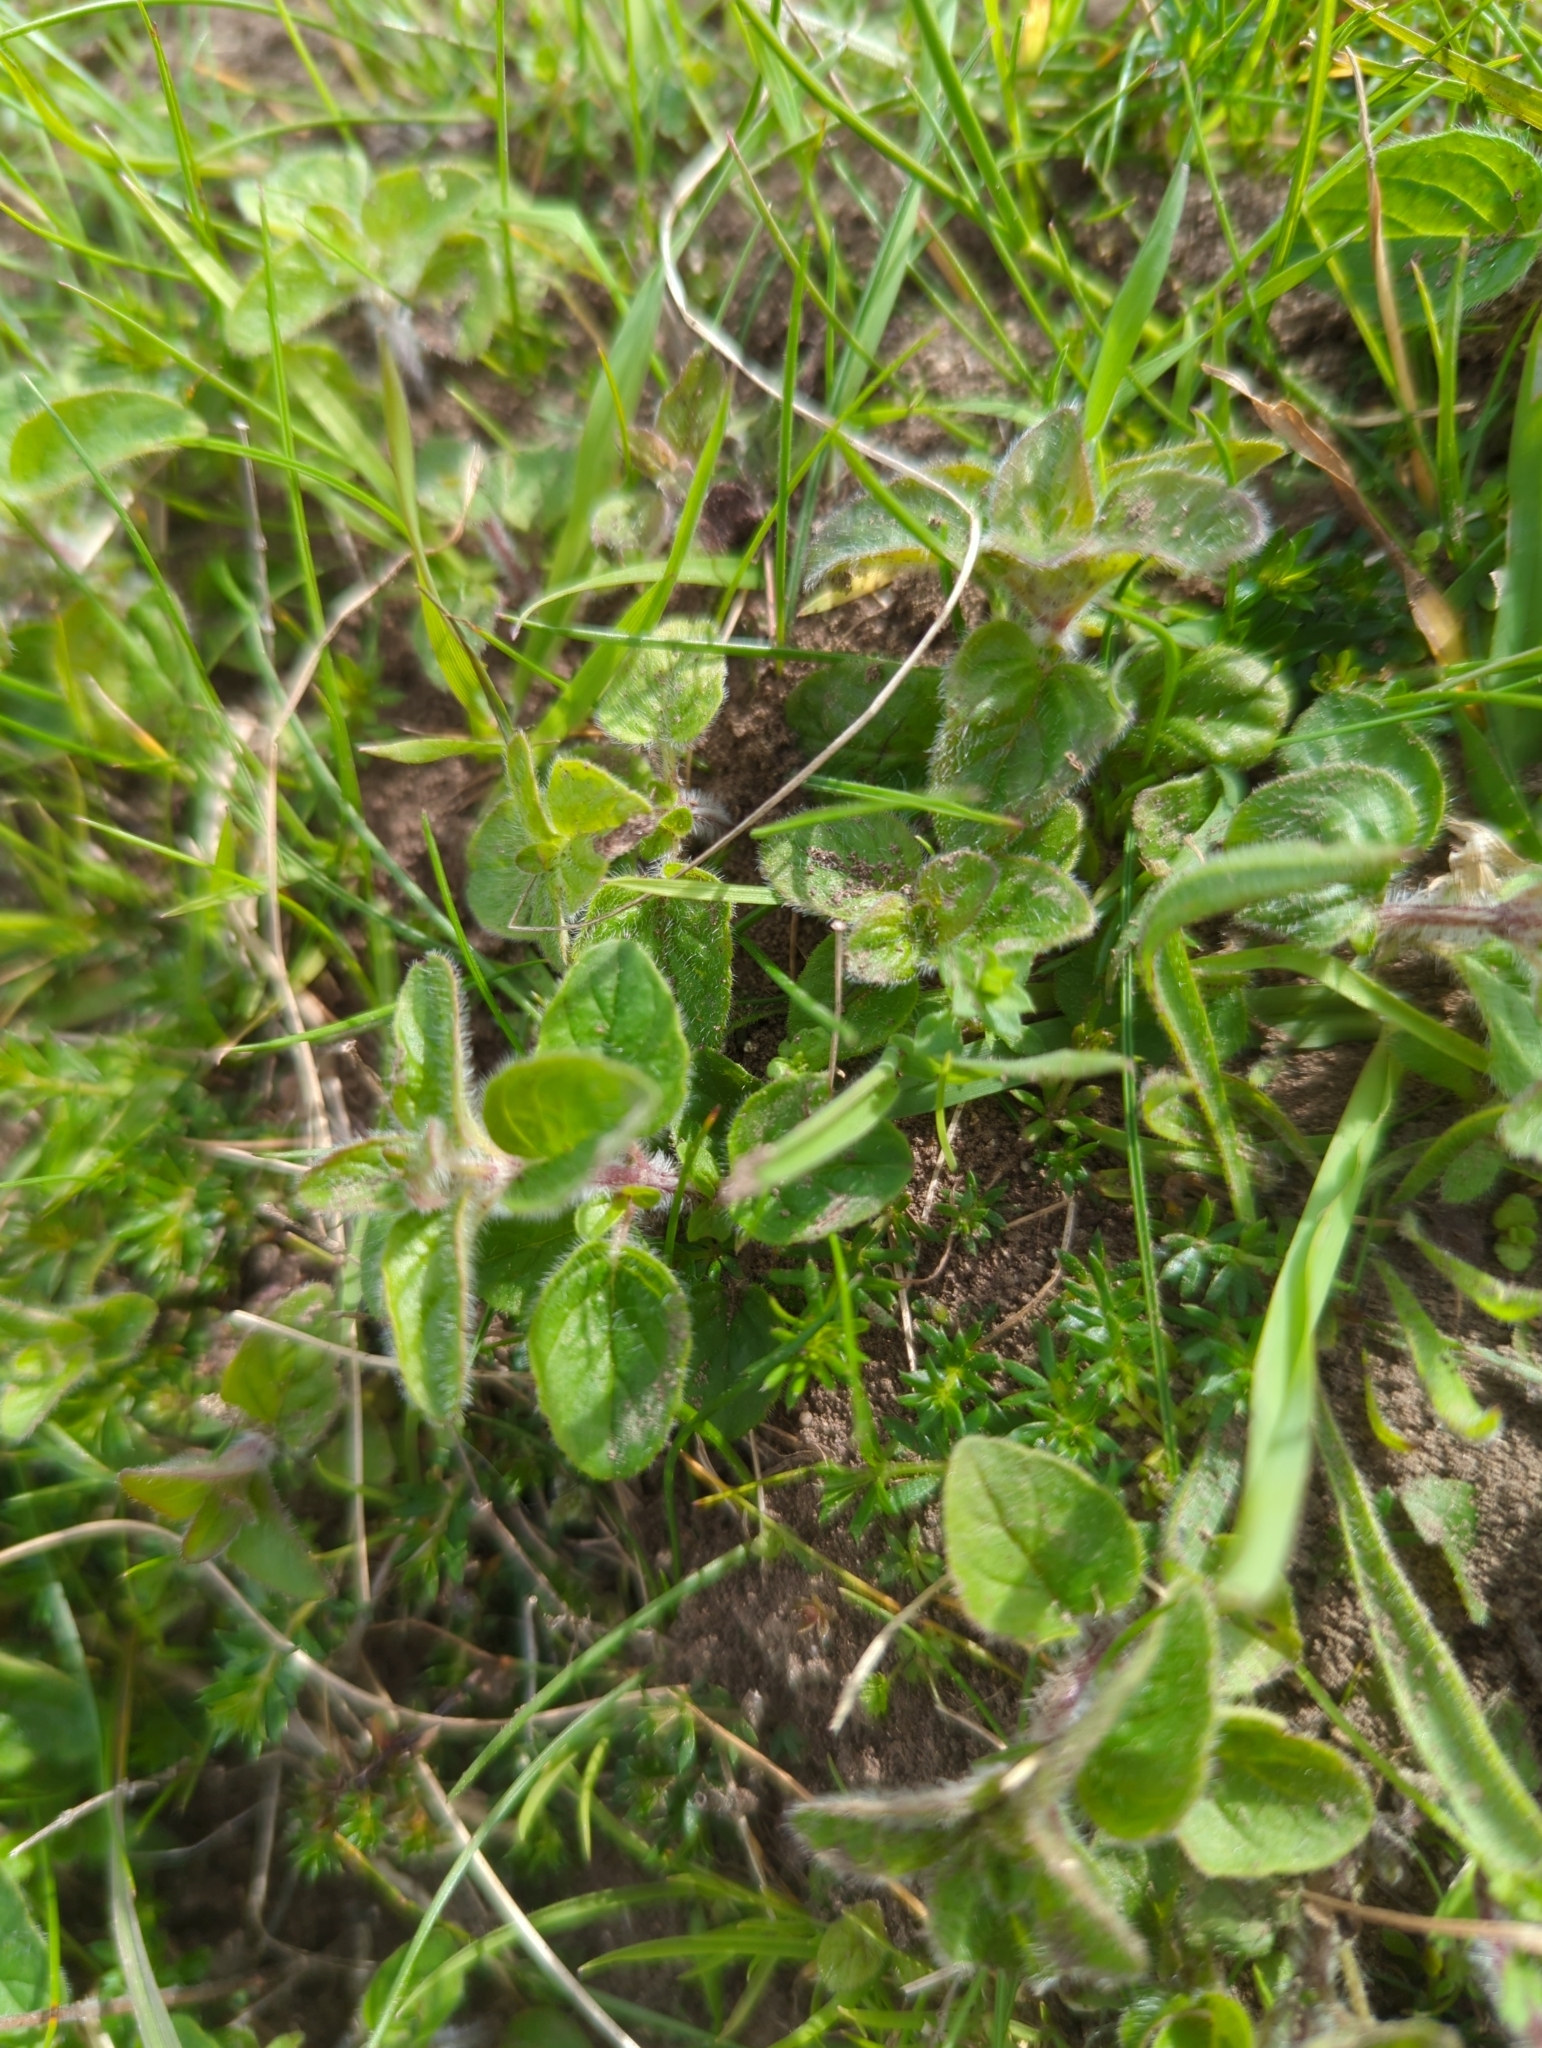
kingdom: Plantae
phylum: Tracheophyta
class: Magnoliopsida
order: Lamiales
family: Lamiaceae
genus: Origanum
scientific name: Origanum vulgare
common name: Wild marjoram
